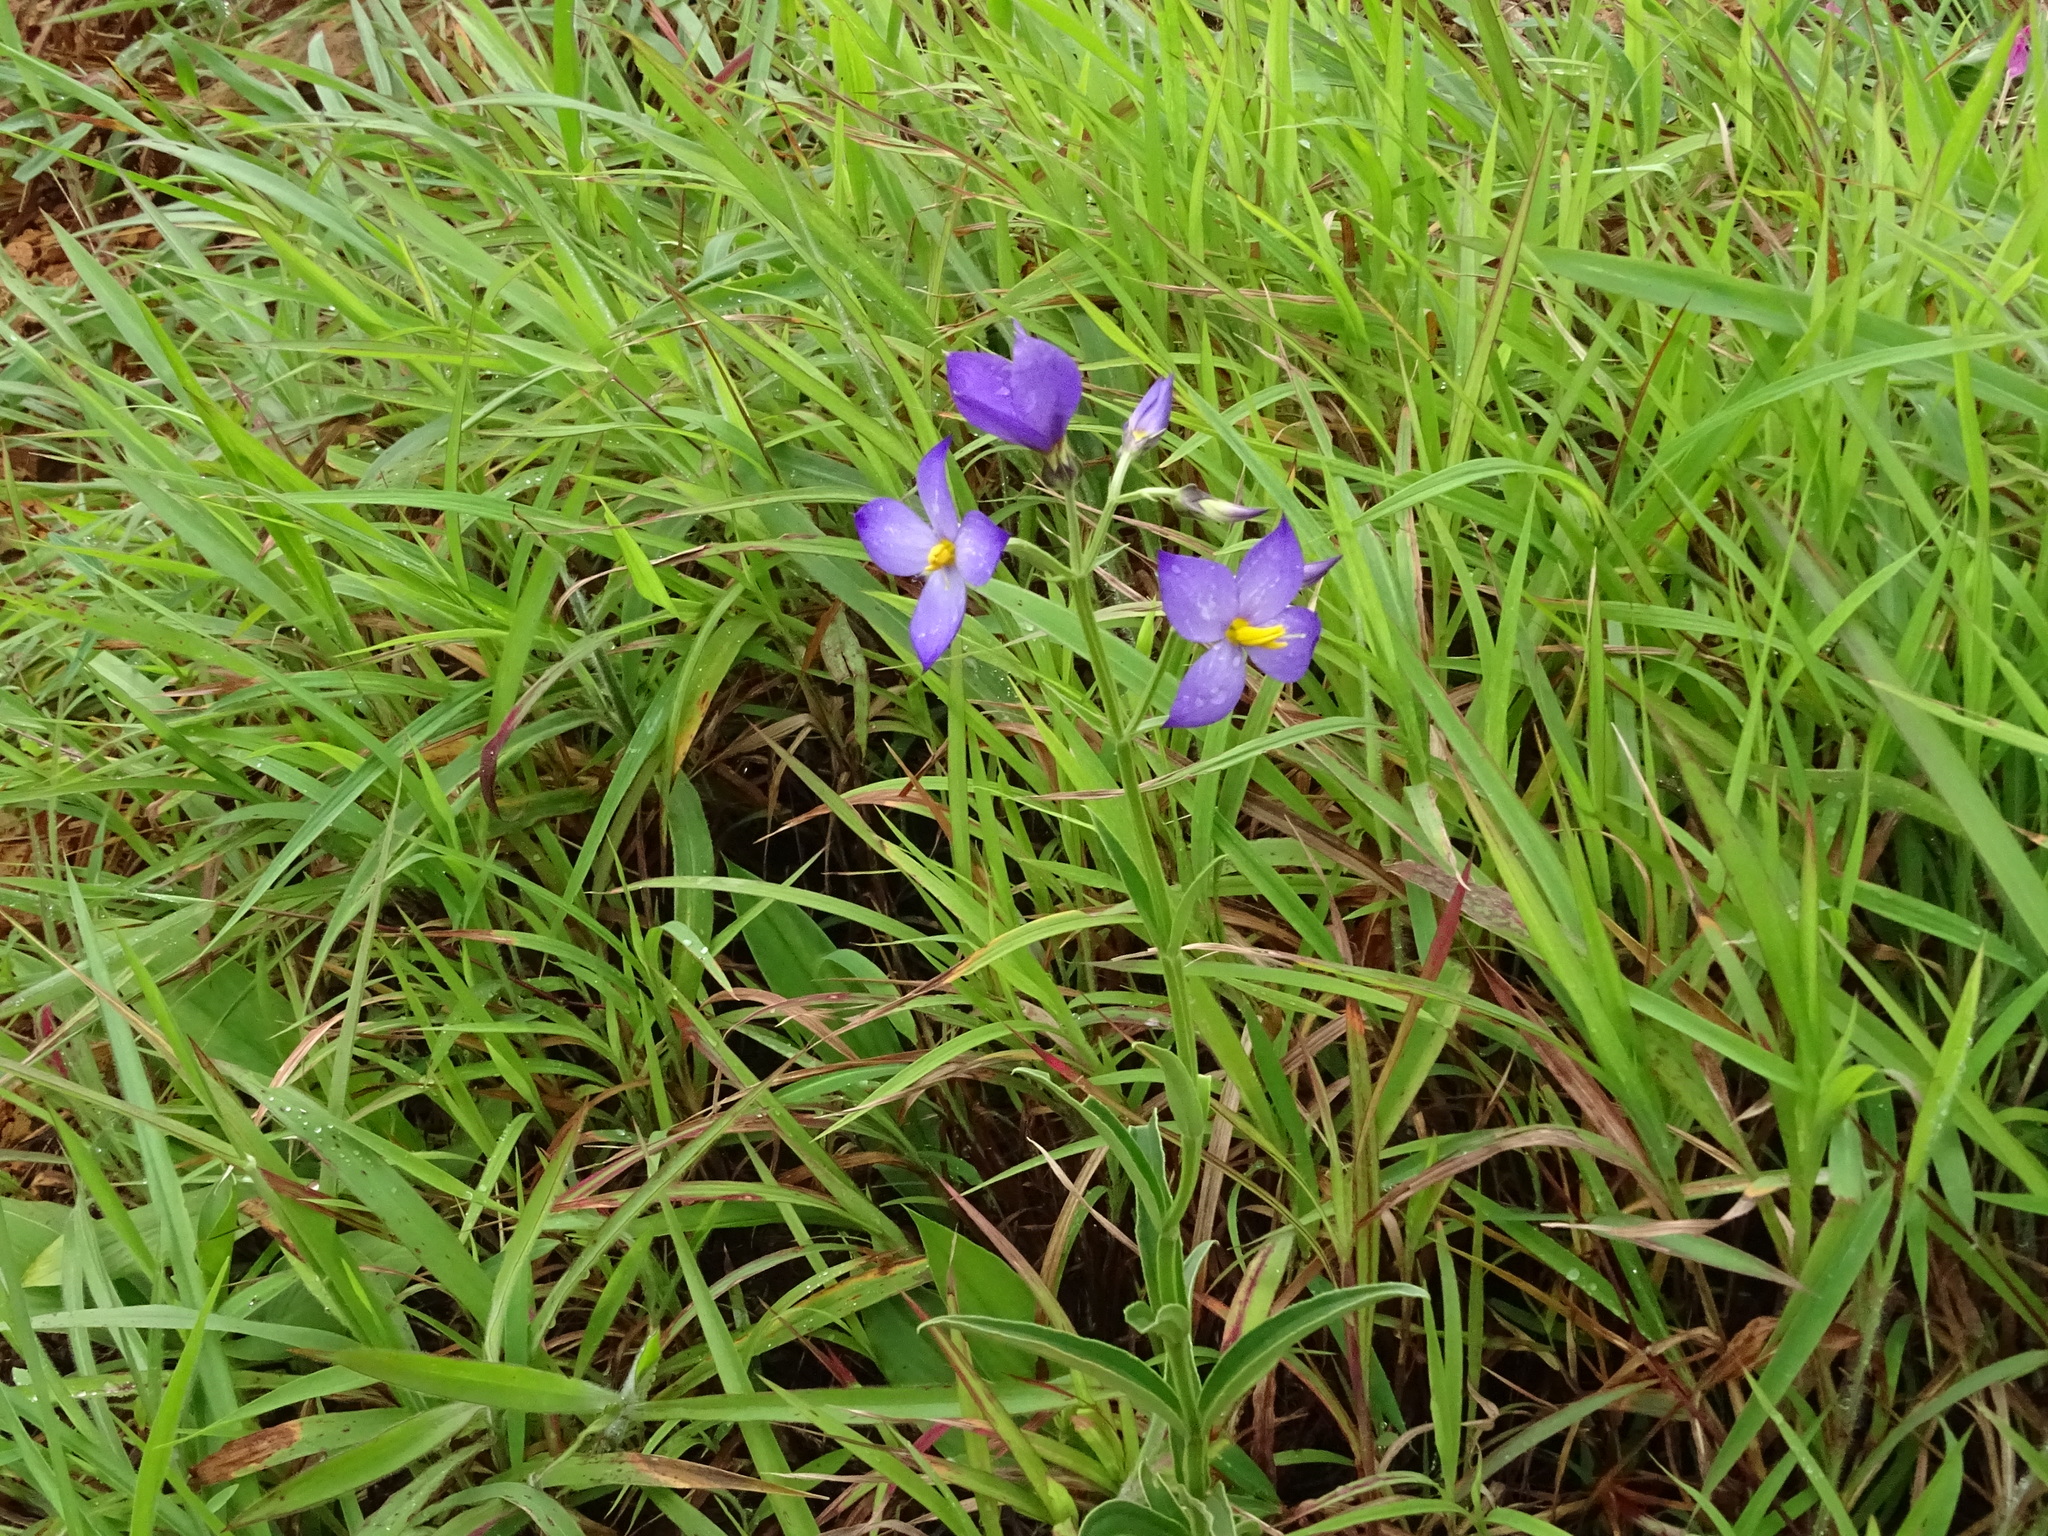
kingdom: Plantae
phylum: Tracheophyta
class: Magnoliopsida
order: Gentianales
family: Gentianaceae
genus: Exacum
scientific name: Exacum tetragonum
